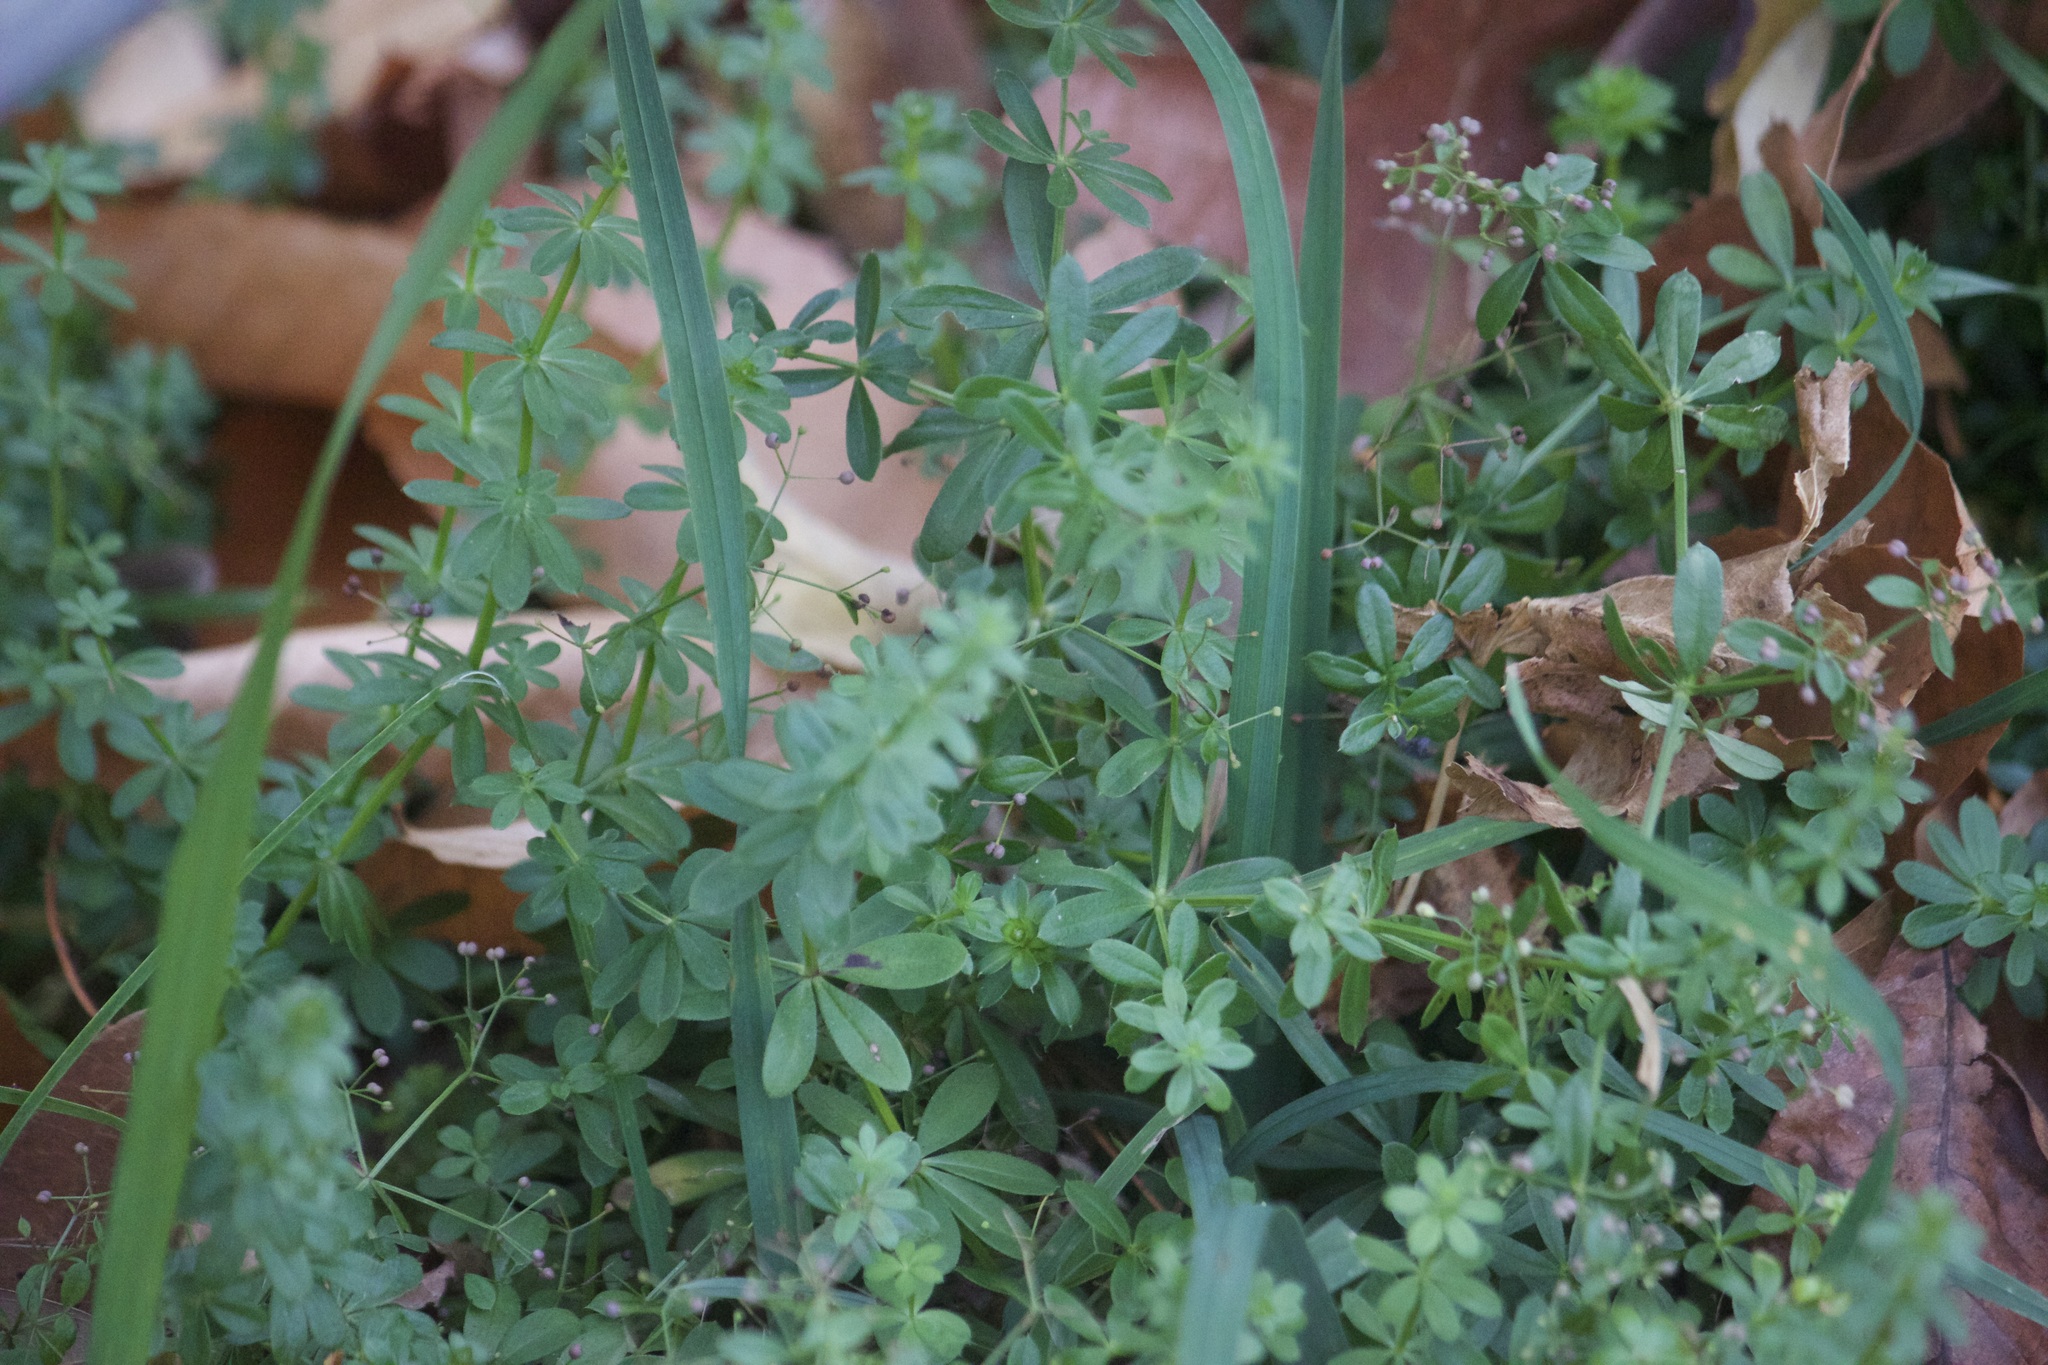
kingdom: Plantae
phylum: Tracheophyta
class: Magnoliopsida
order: Gentianales
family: Rubiaceae
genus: Galium
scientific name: Galium mollugo
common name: Hedge bedstraw
